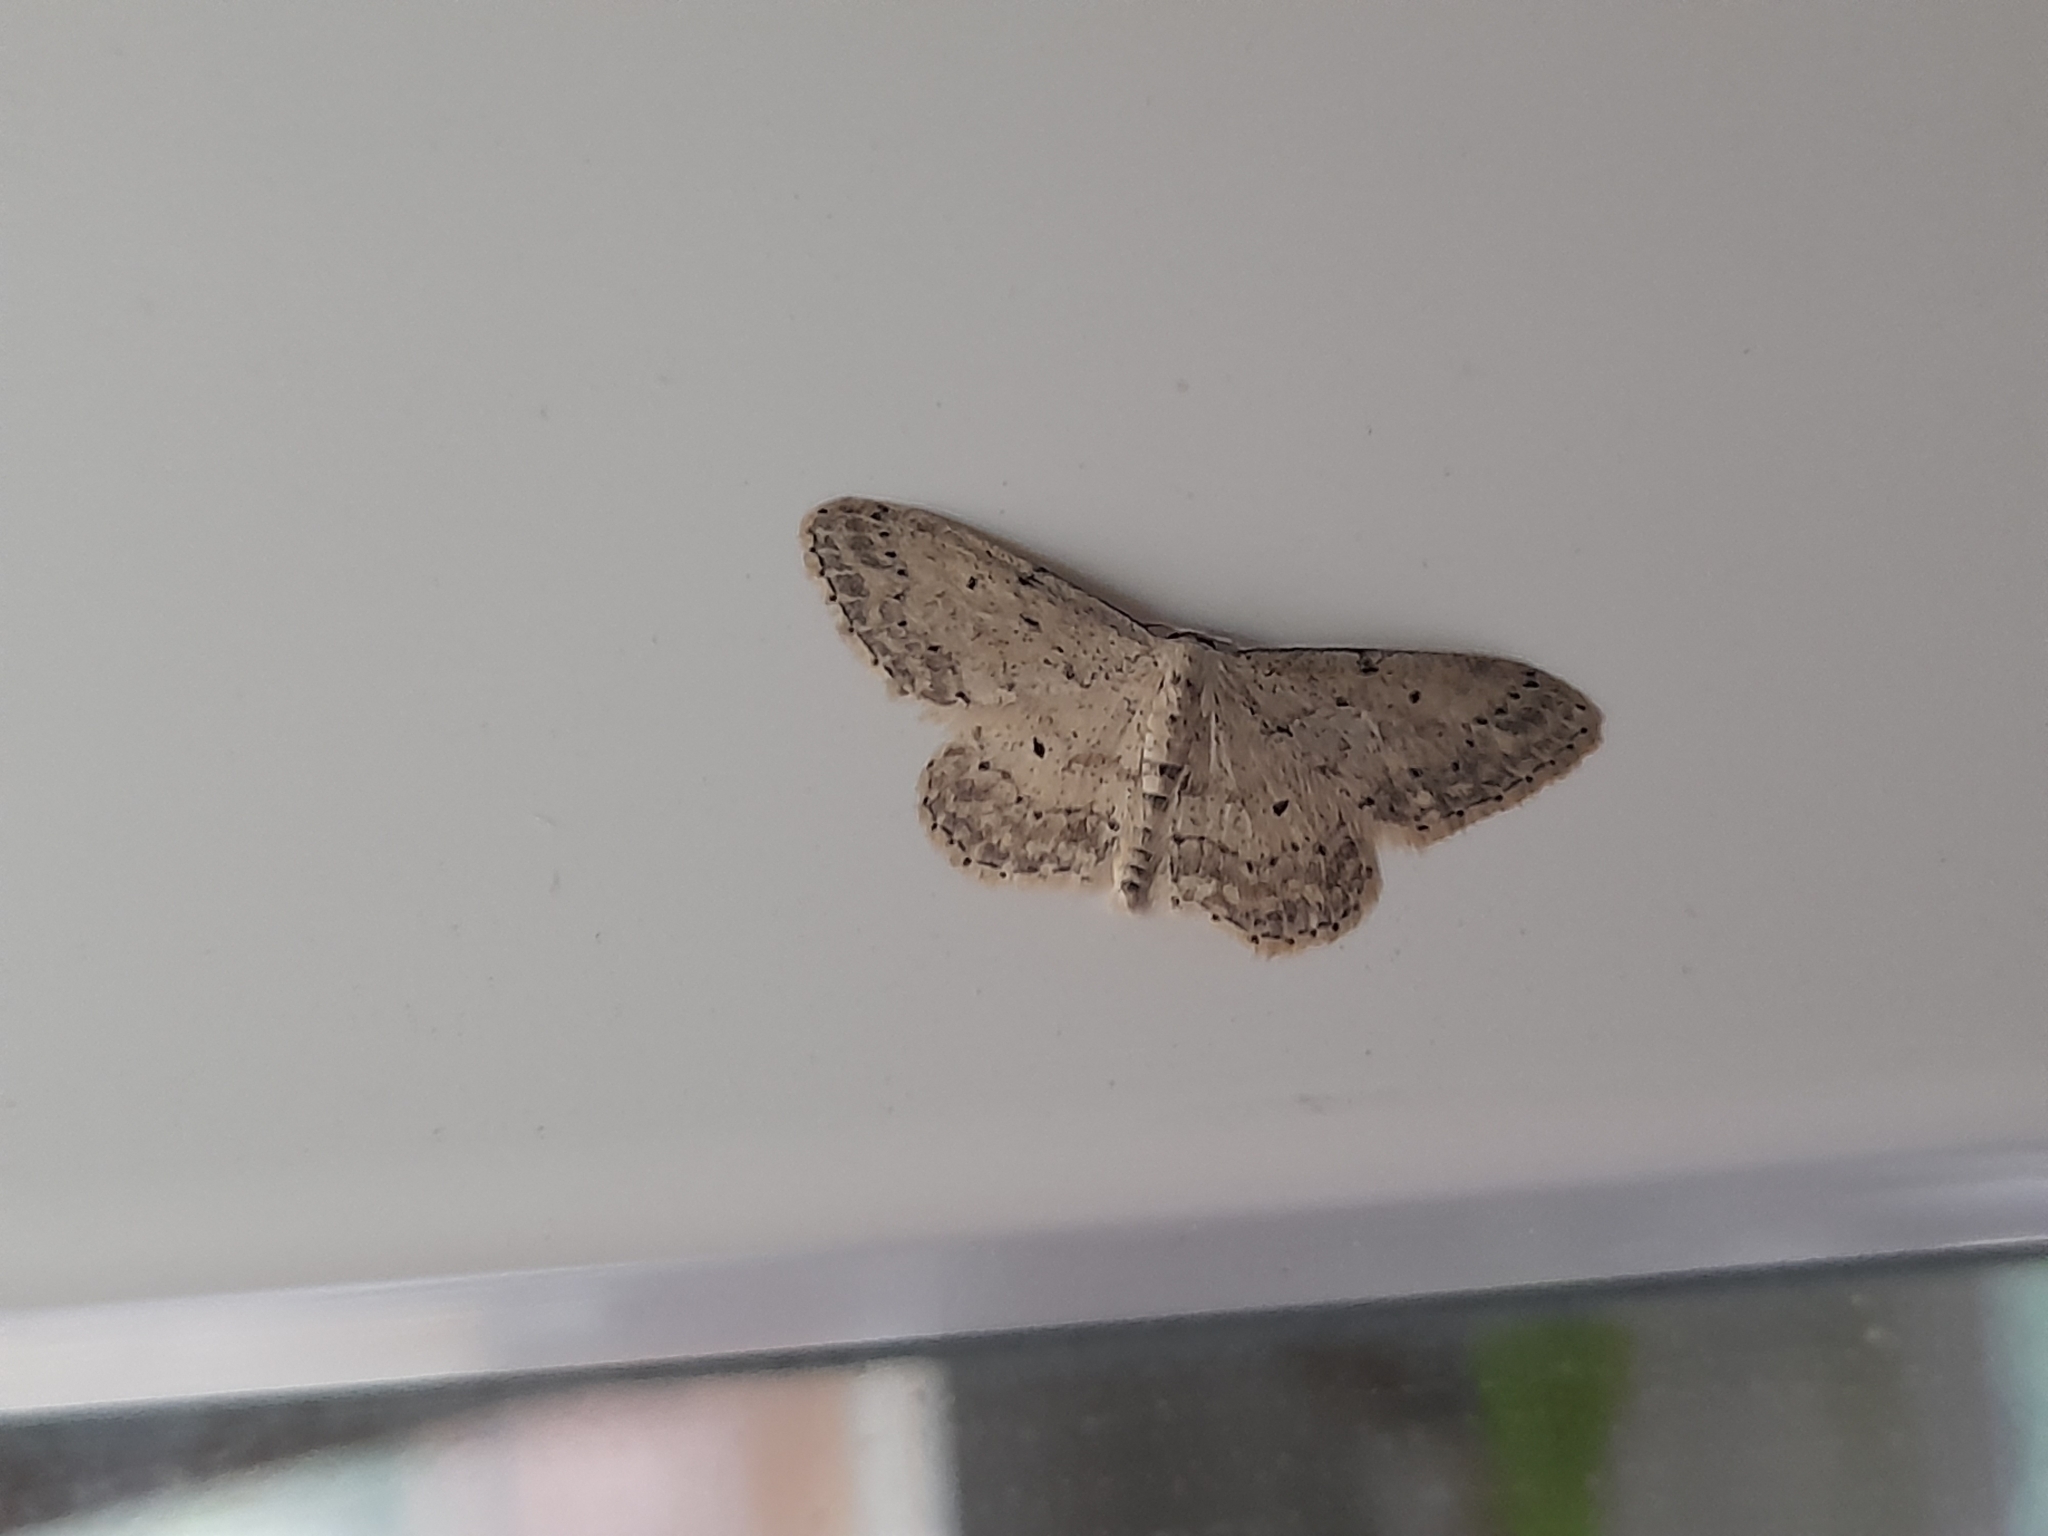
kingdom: Animalia
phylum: Arthropoda
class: Insecta
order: Lepidoptera
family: Geometridae
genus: Idaea
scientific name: Idaea seriata
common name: Small dusty wave
